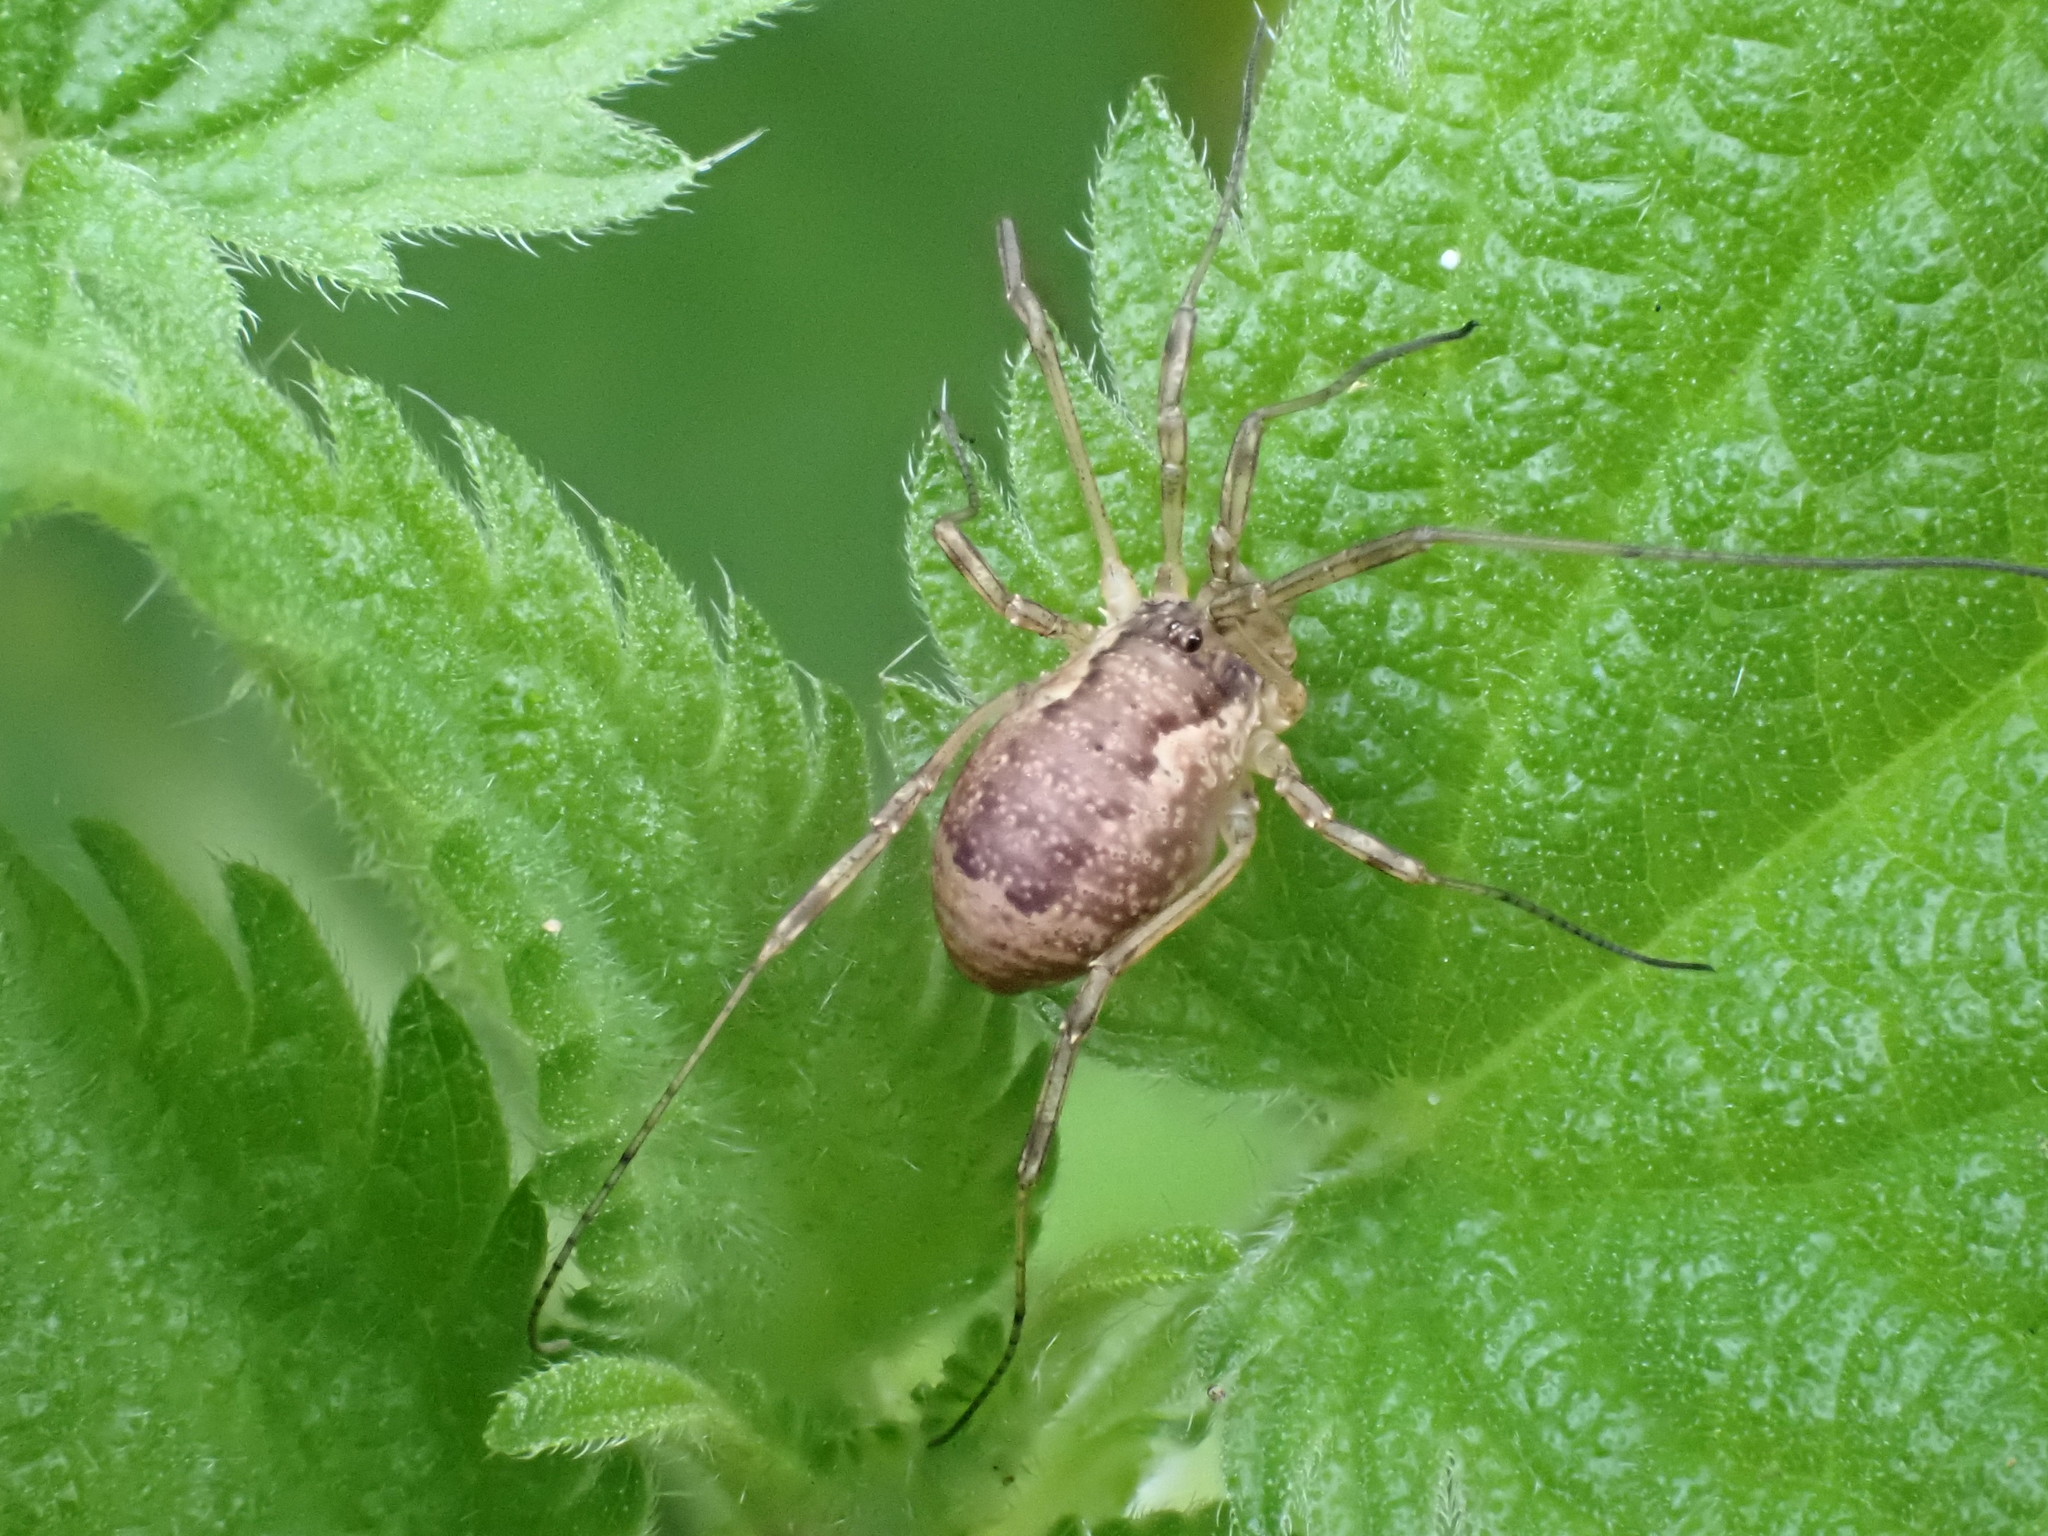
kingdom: Animalia
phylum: Arthropoda
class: Arachnida
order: Opiliones
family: Phalangiidae
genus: Oligolophus
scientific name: Oligolophus tridens
